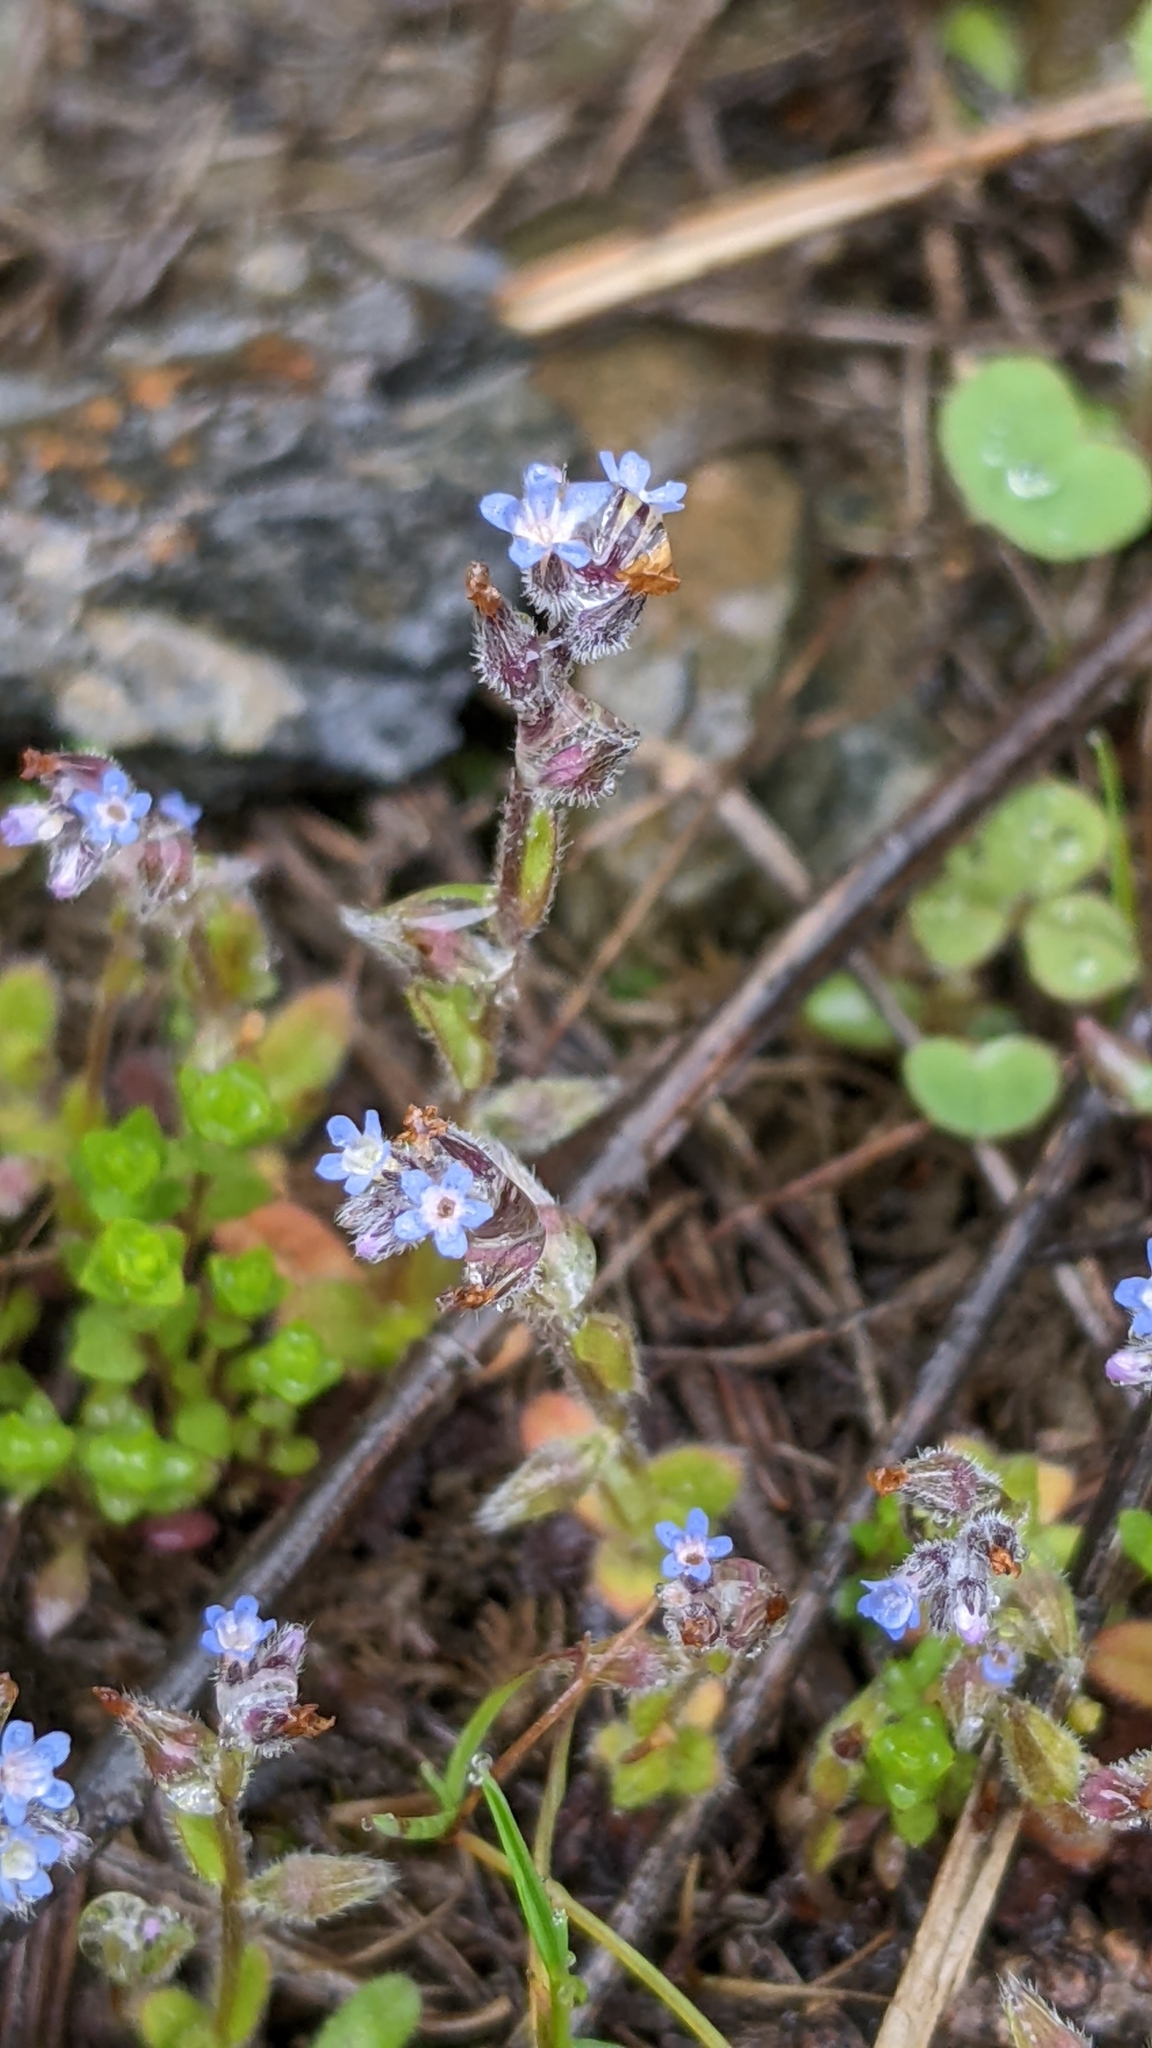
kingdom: Plantae
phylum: Tracheophyta
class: Magnoliopsida
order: Boraginales
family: Boraginaceae
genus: Myosotis
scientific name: Myosotis stricta
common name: Strict forget-me-not
